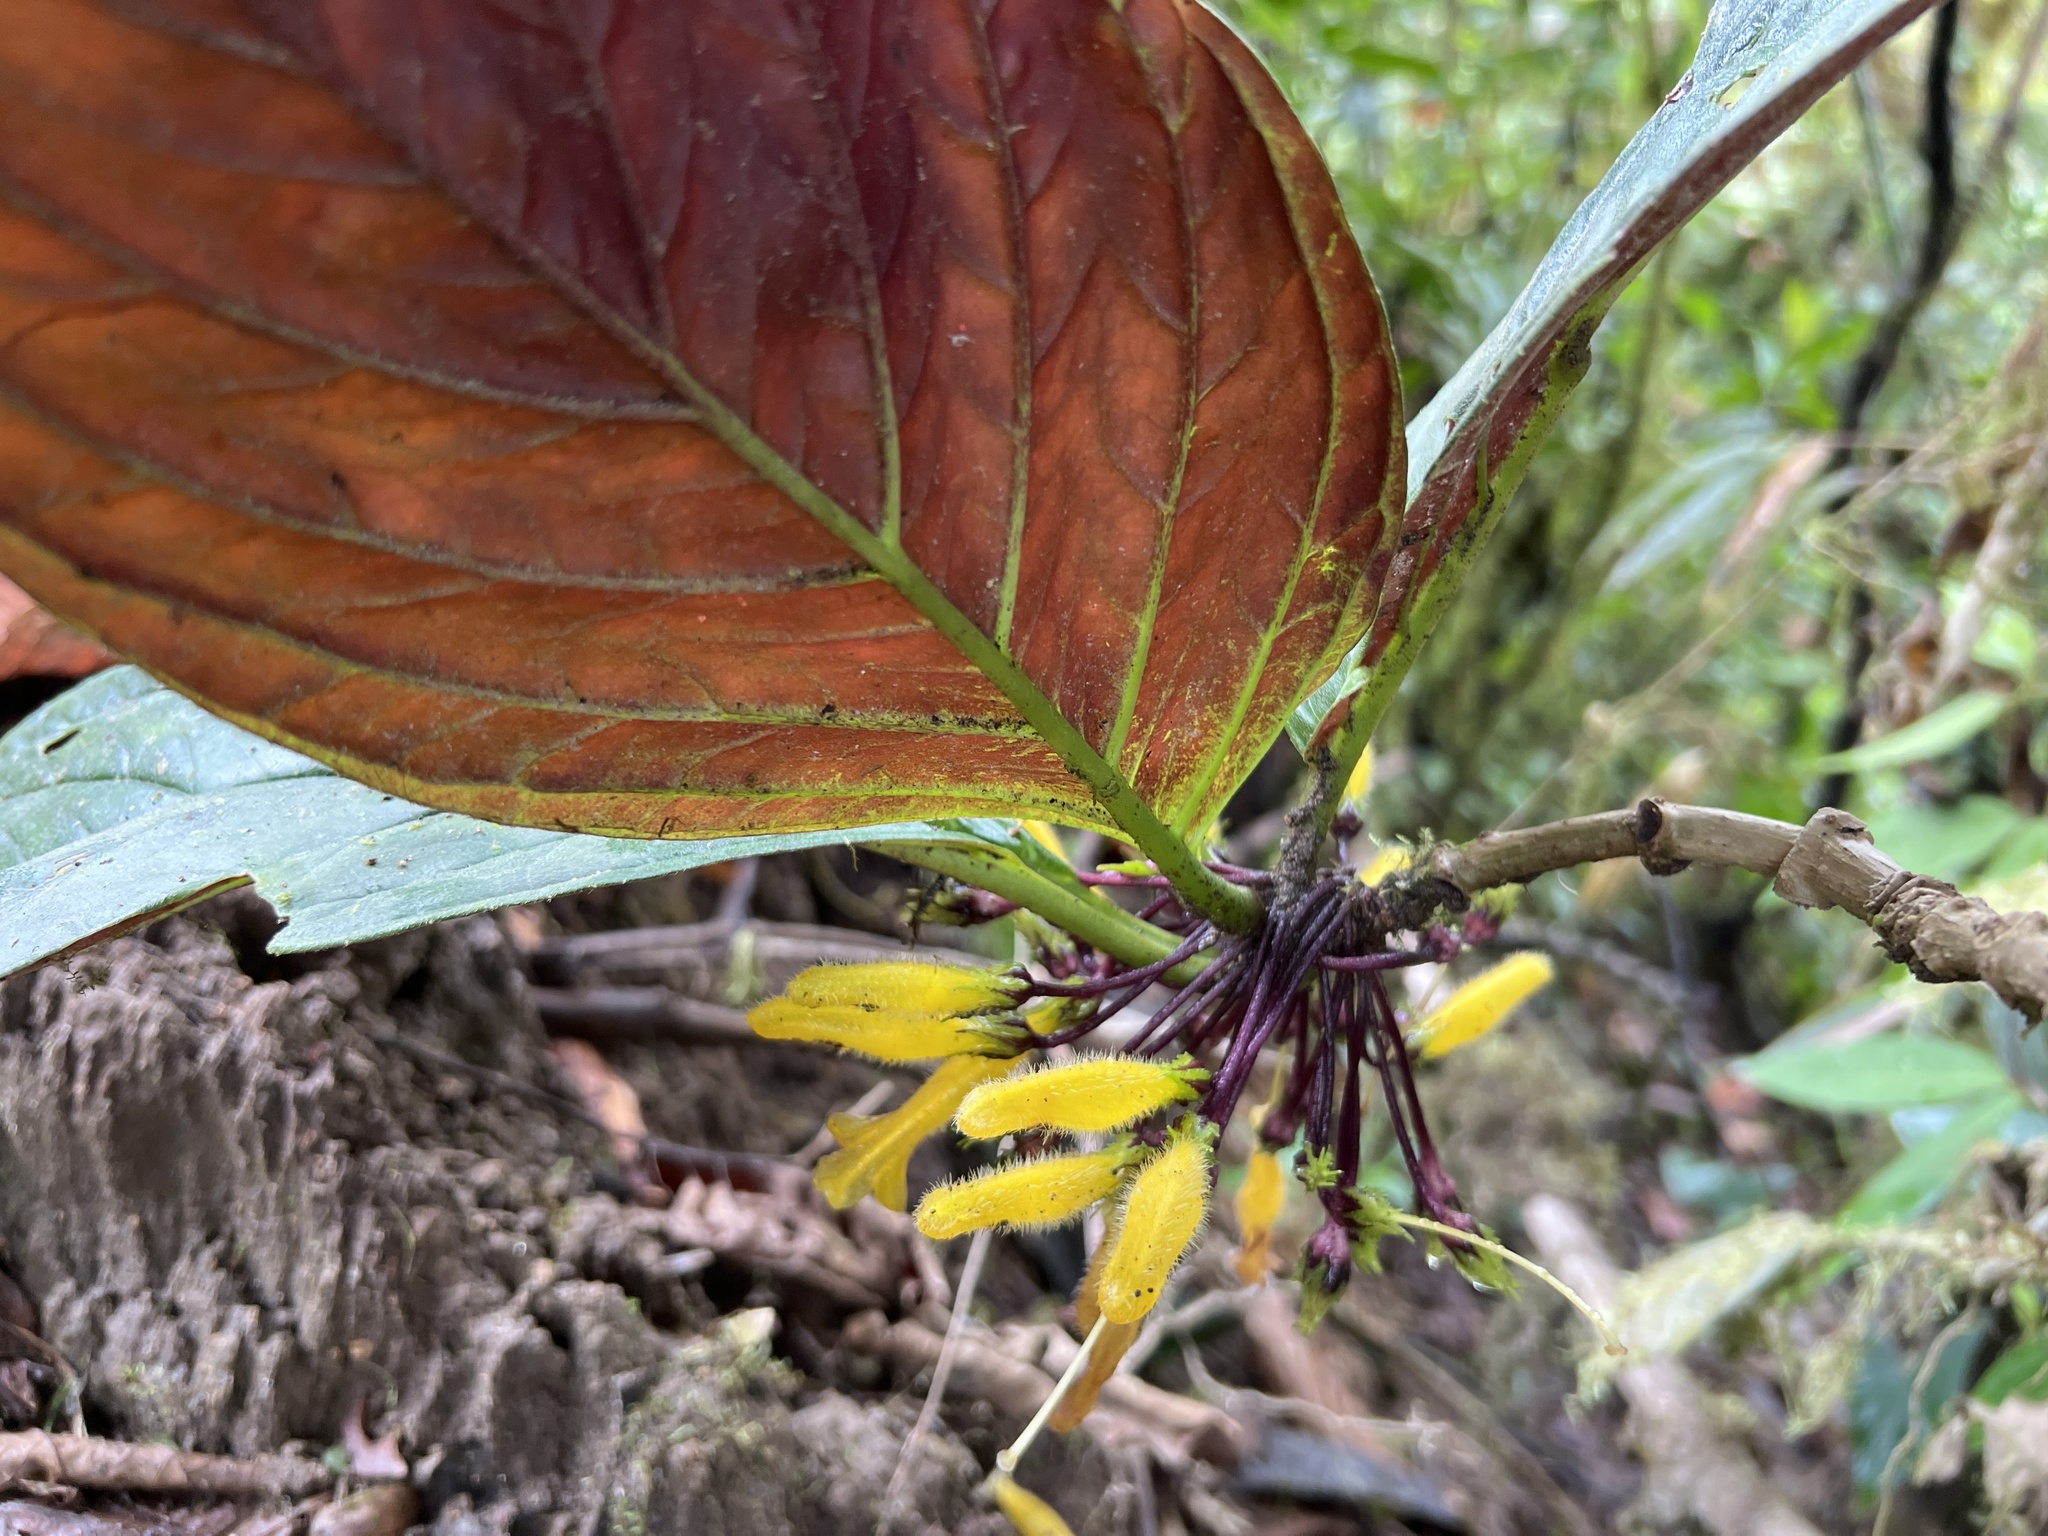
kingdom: Plantae
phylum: Tracheophyta
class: Magnoliopsida
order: Lamiales
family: Gesneriaceae
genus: Columnea
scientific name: Columnea kucyniakii
